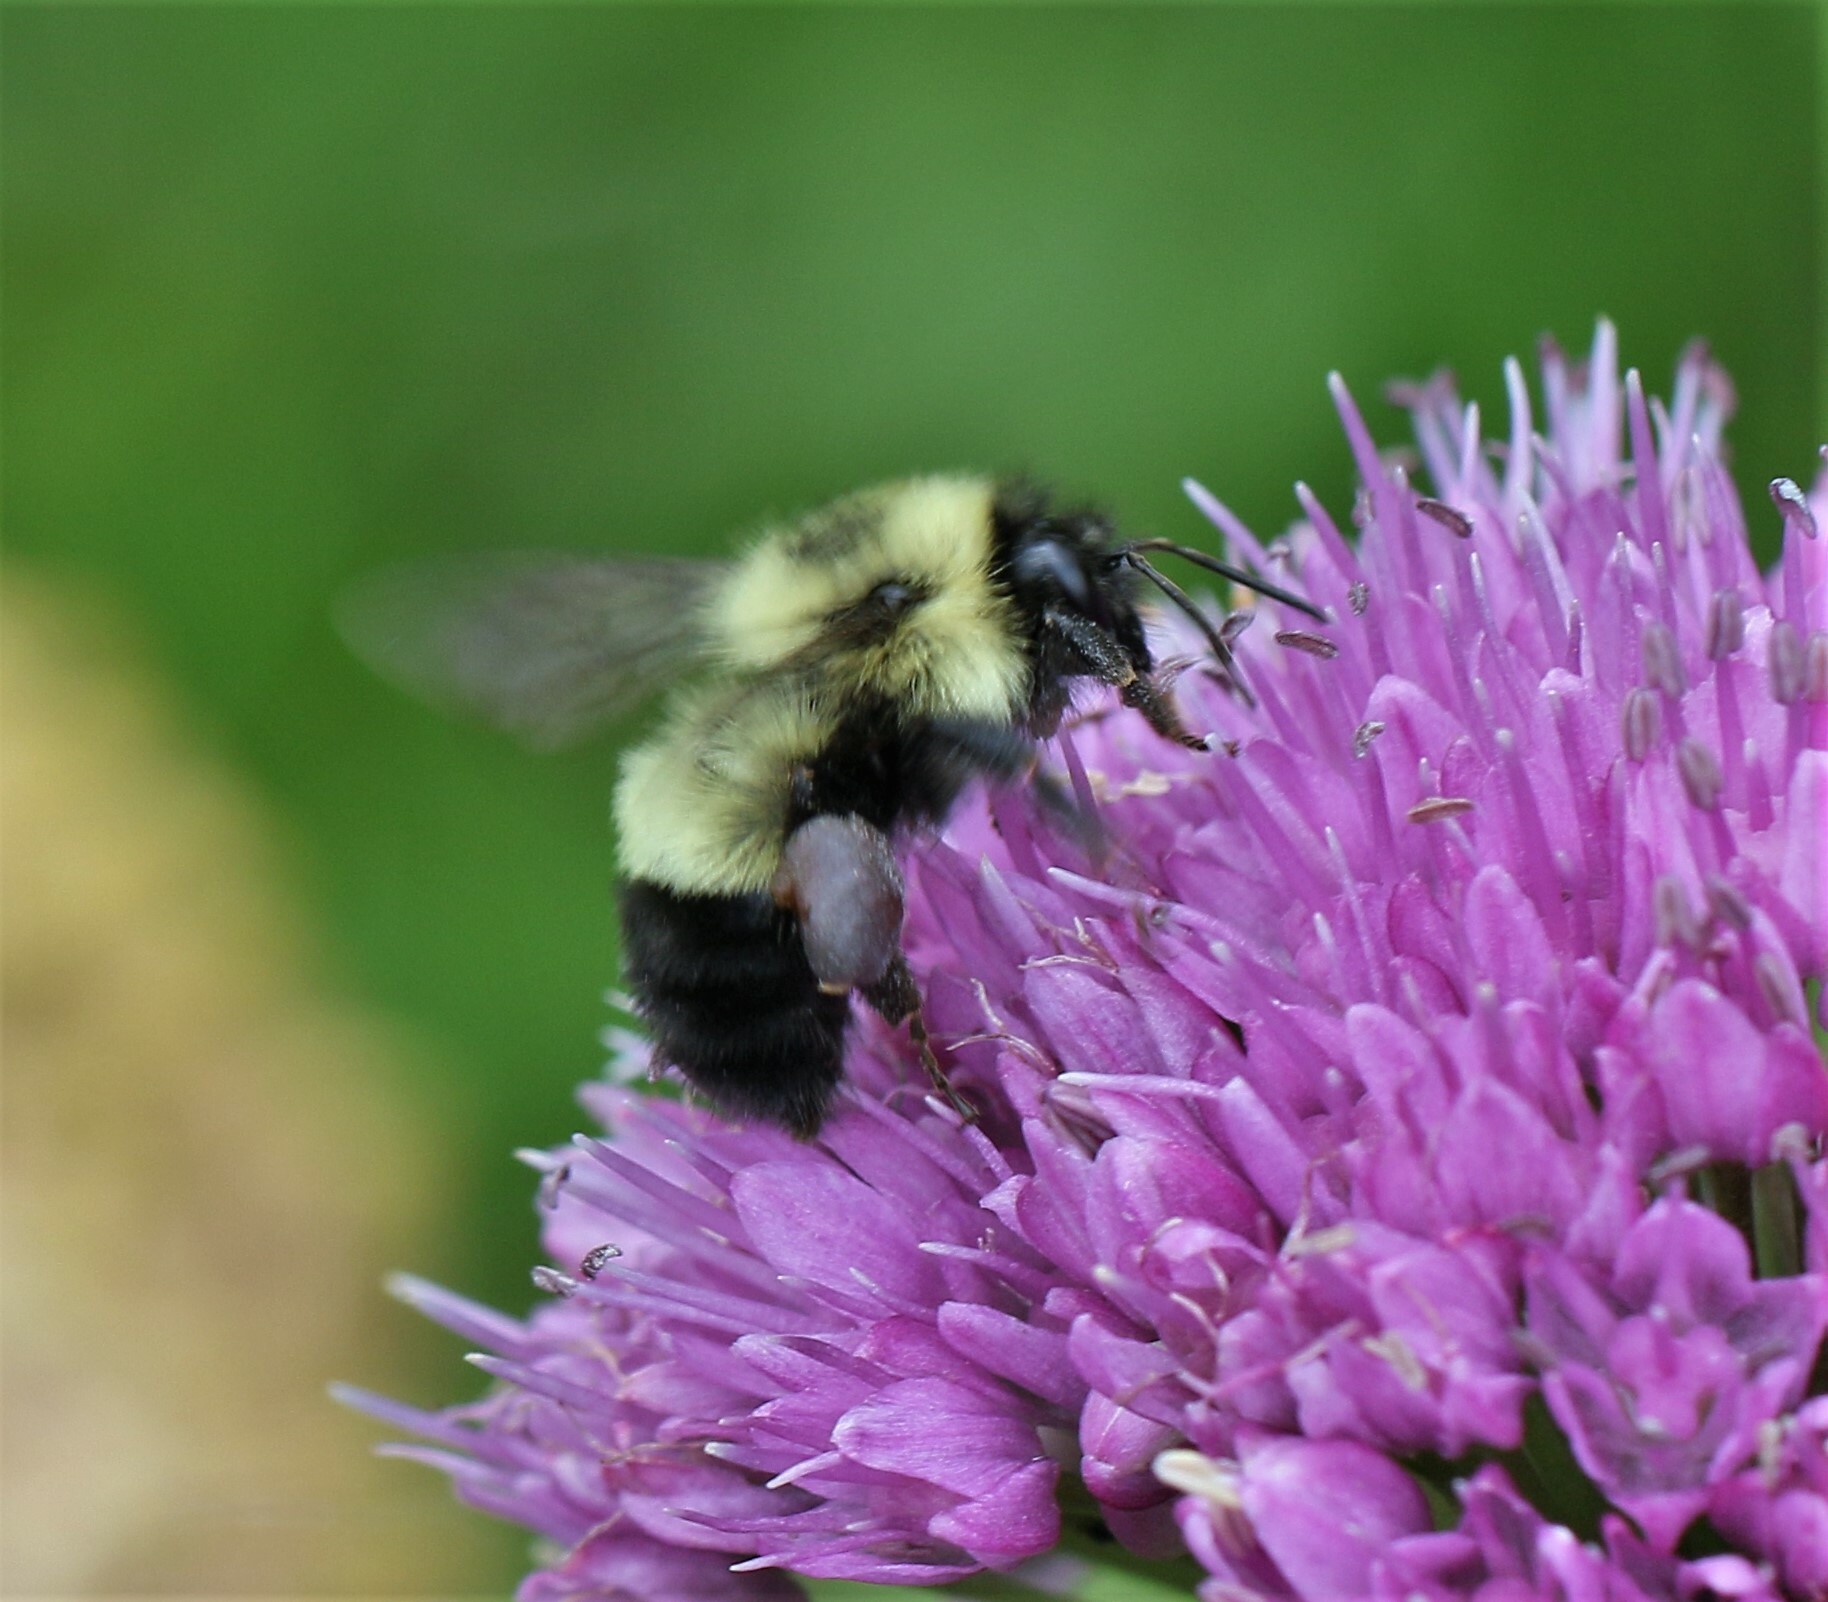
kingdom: Animalia
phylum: Arthropoda
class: Insecta
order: Hymenoptera
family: Apidae
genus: Bombus
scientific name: Bombus vagans
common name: Half-black bumble bee
